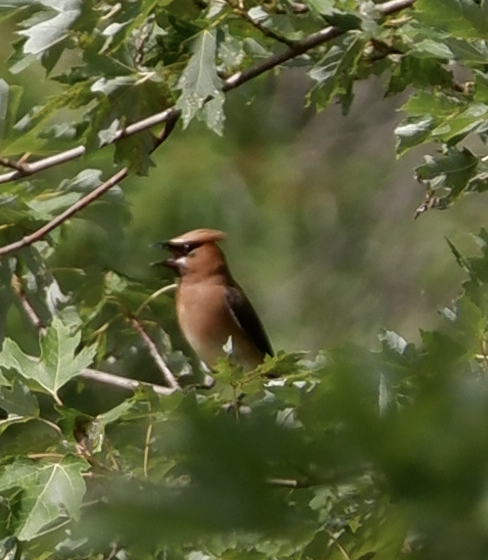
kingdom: Animalia
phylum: Chordata
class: Aves
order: Passeriformes
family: Bombycillidae
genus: Bombycilla
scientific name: Bombycilla cedrorum
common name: Cedar waxwing
